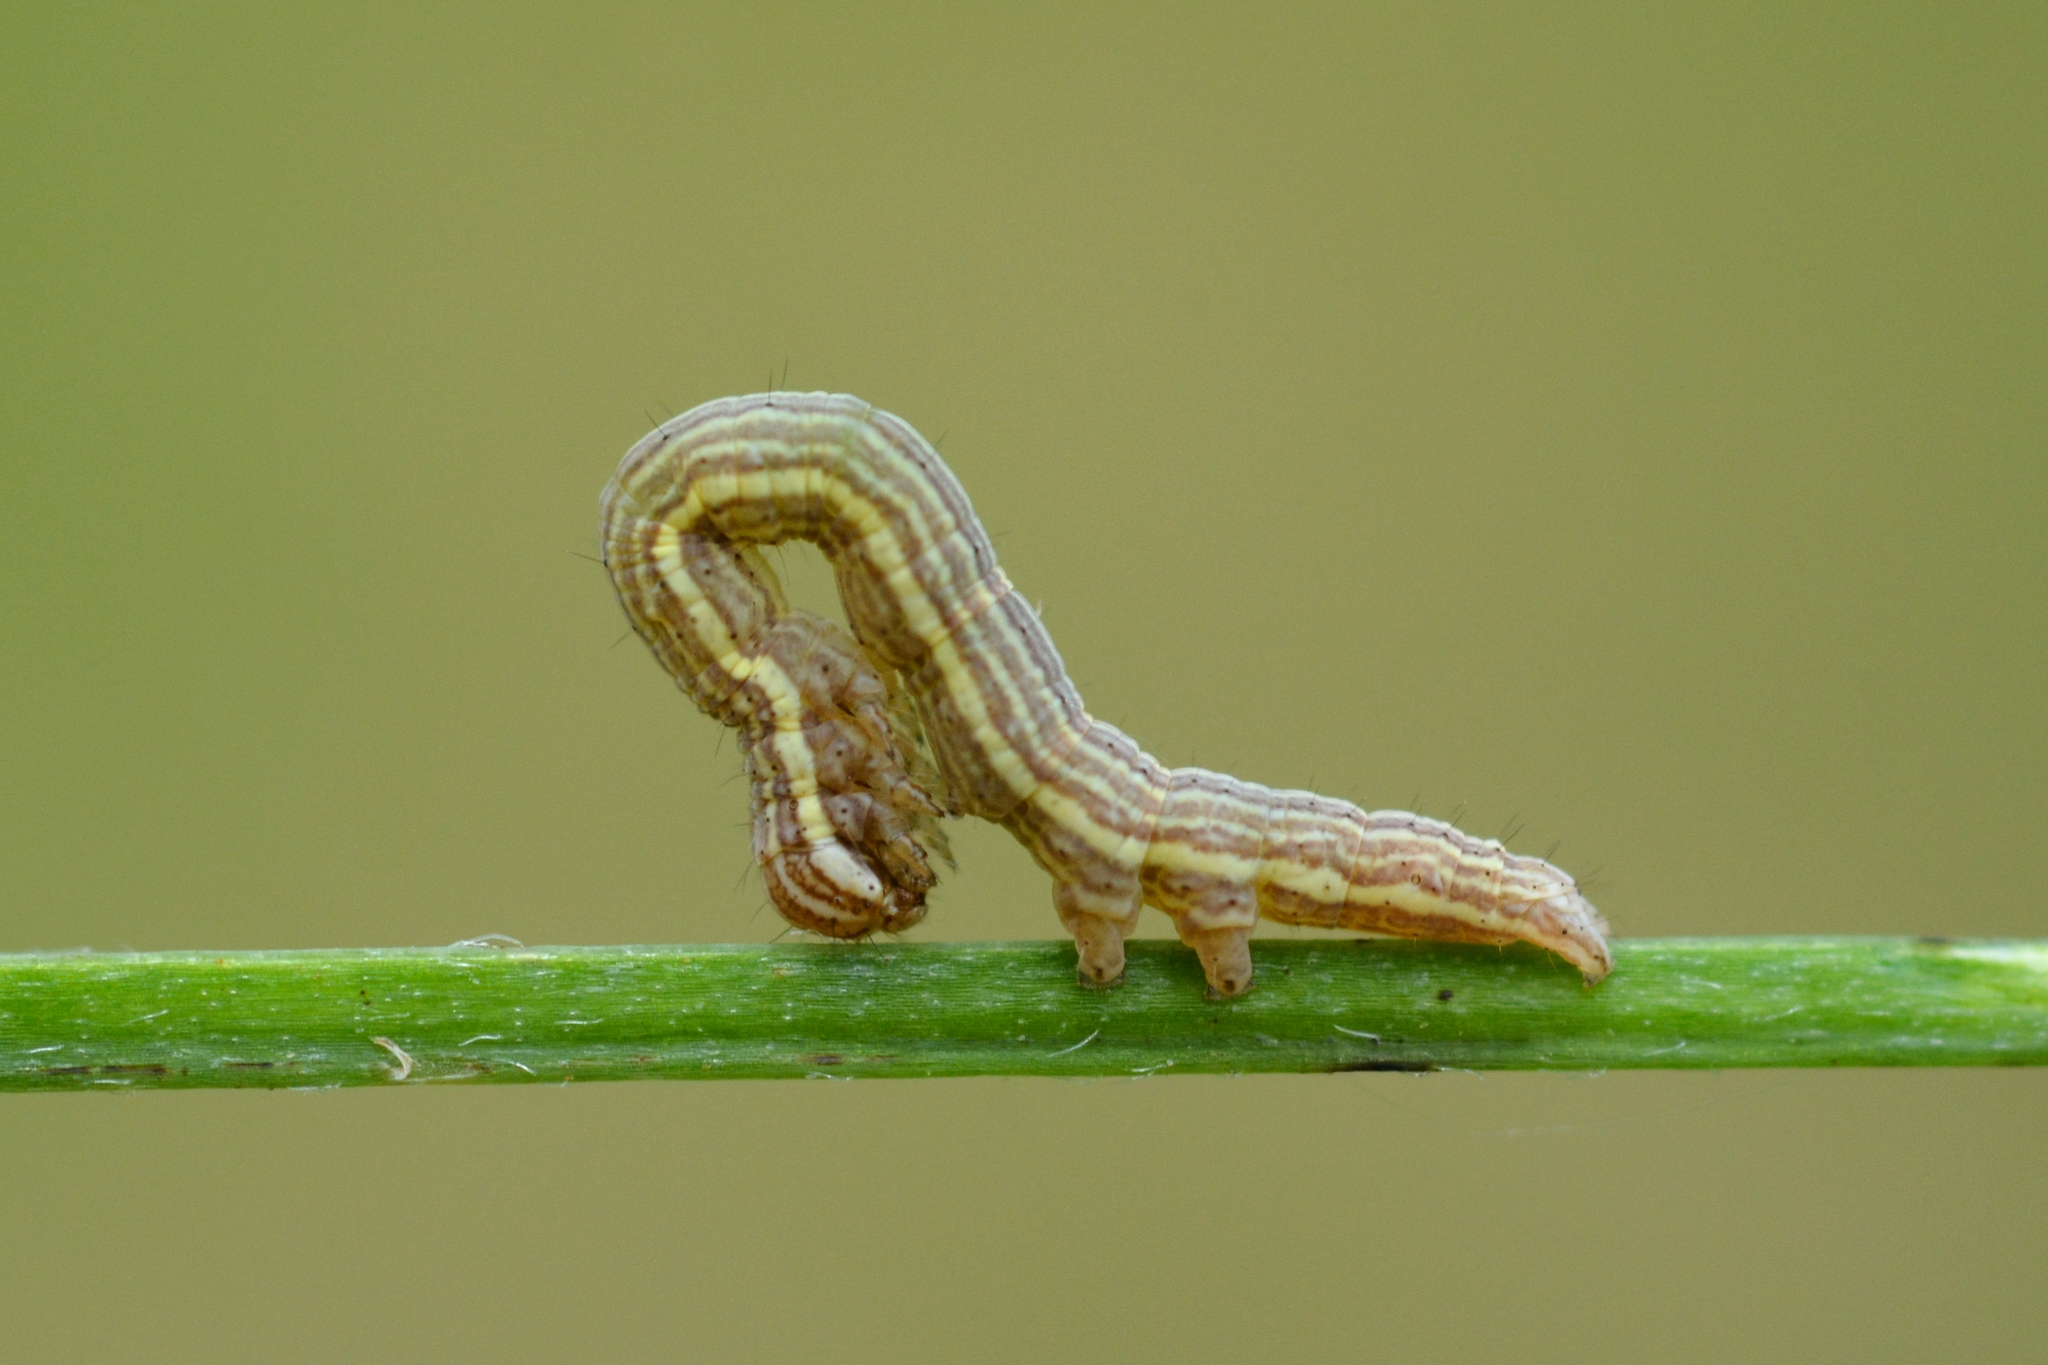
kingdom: Animalia
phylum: Arthropoda
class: Insecta
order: Lepidoptera
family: Erebidae
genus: Callistege
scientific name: Callistege mi
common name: Mother shipton
